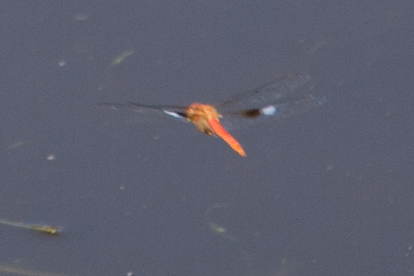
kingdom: Animalia
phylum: Arthropoda
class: Insecta
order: Odonata
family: Libellulidae
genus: Tholymis
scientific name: Tholymis tillarga
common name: Coral-tailed cloud wing
